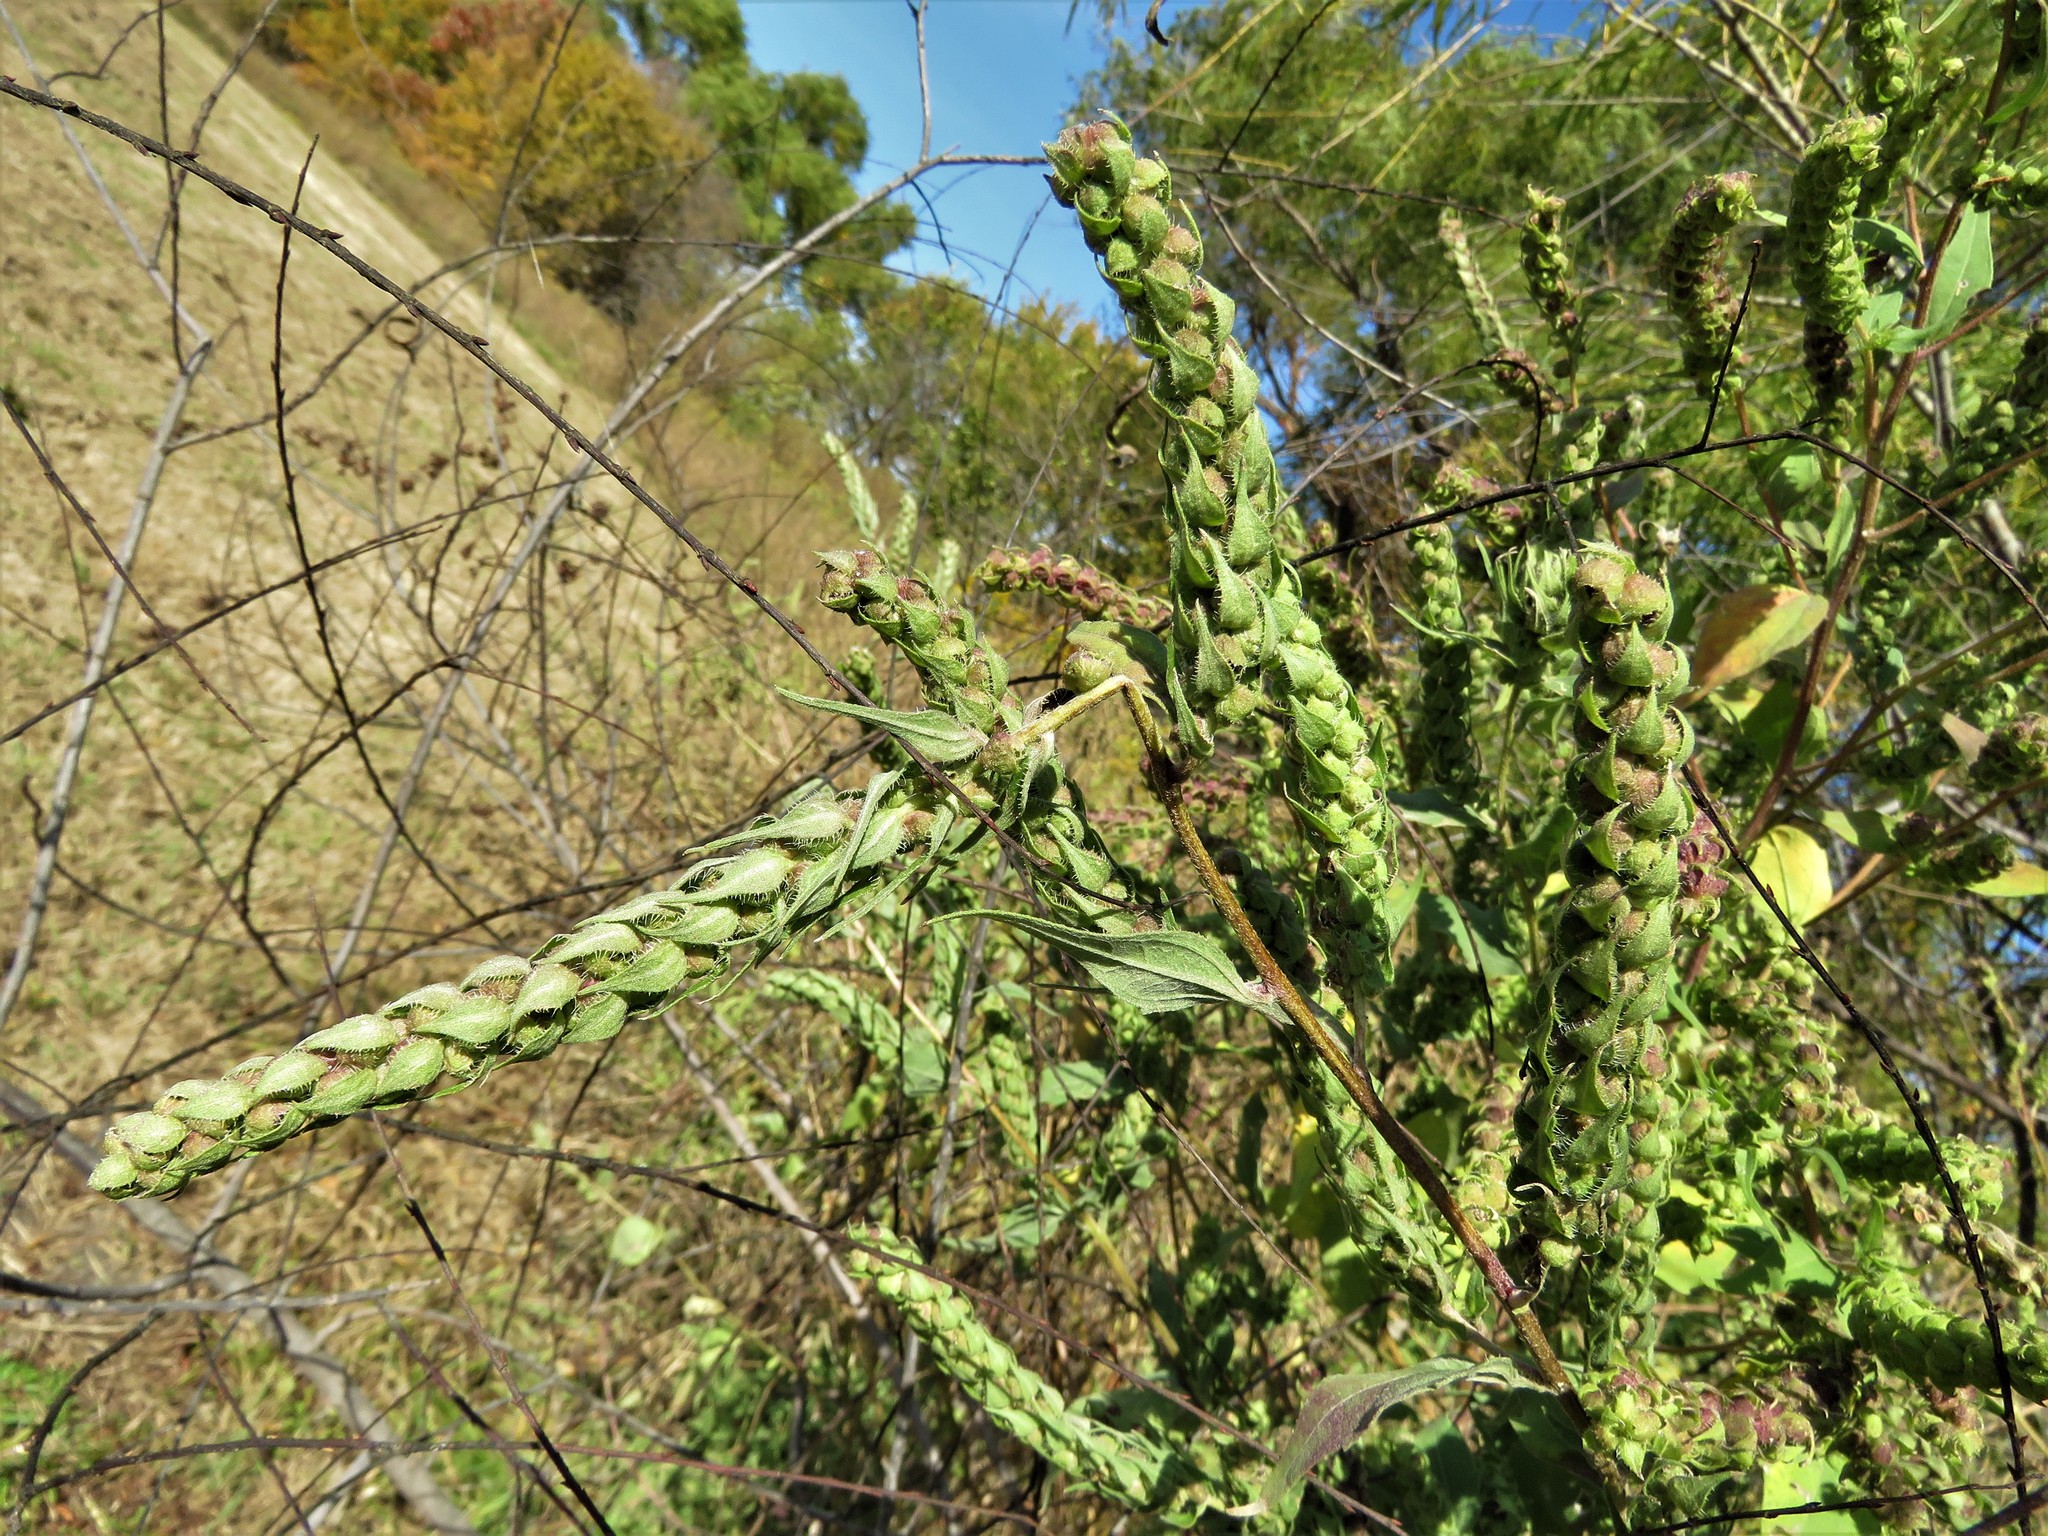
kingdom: Plantae
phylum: Tracheophyta
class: Magnoliopsida
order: Asterales
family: Asteraceae
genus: Iva
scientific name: Iva annua
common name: Marsh-elder
